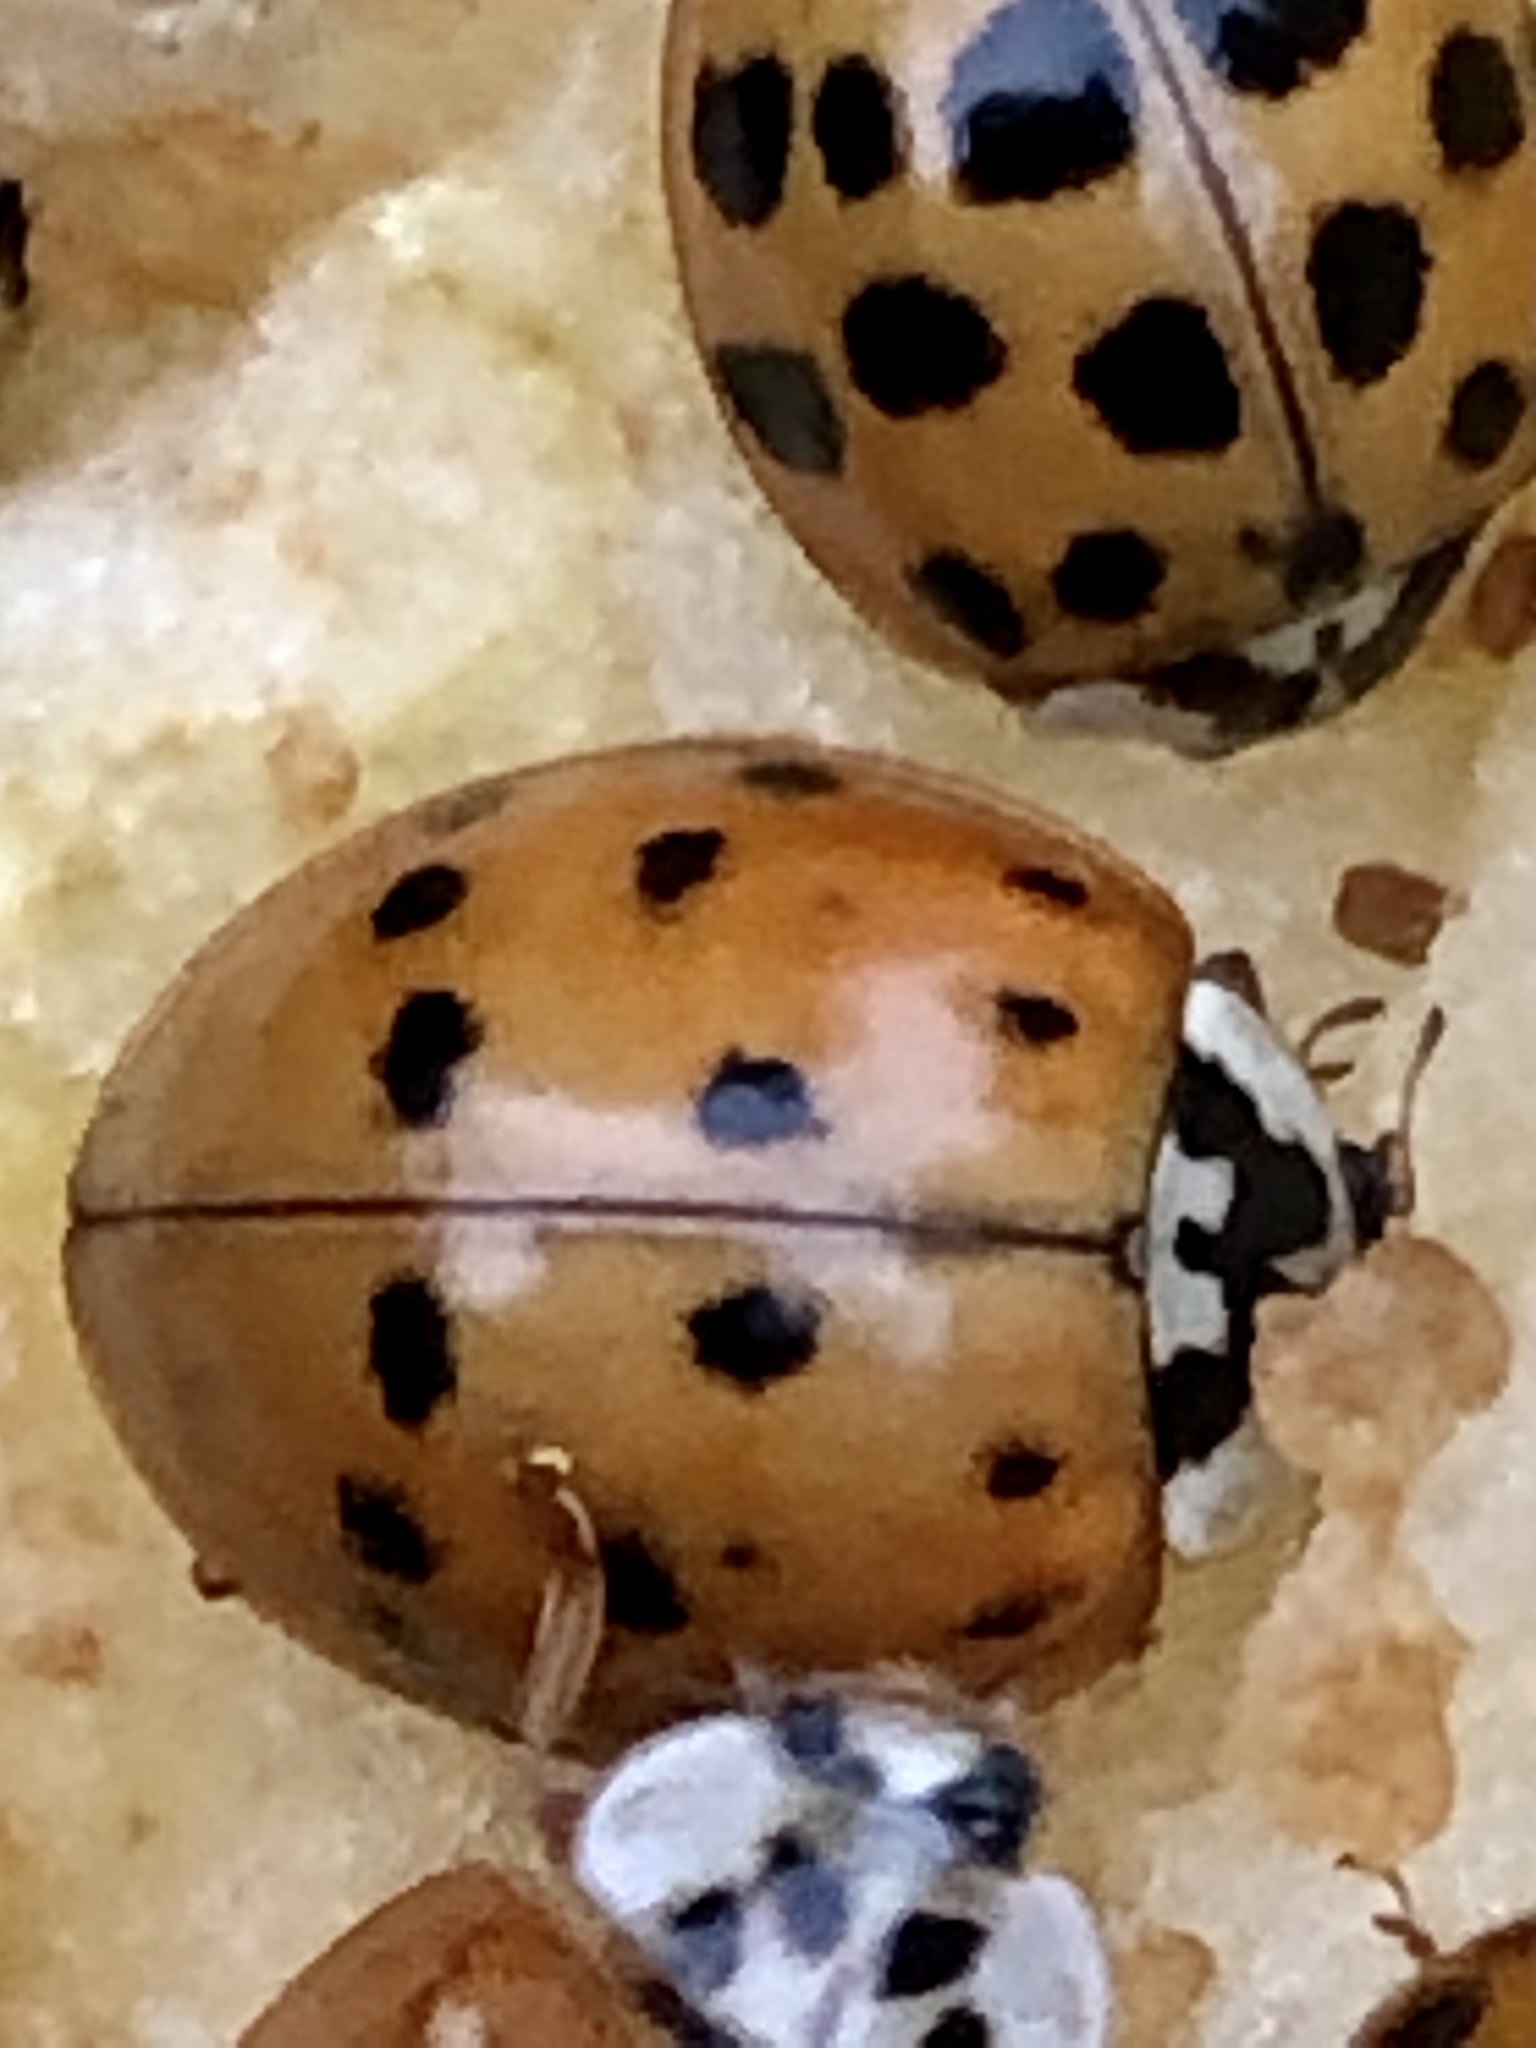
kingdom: Animalia
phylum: Arthropoda
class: Insecta
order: Coleoptera
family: Coccinellidae
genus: Harmonia
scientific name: Harmonia axyridis
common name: Harlequin ladybird
